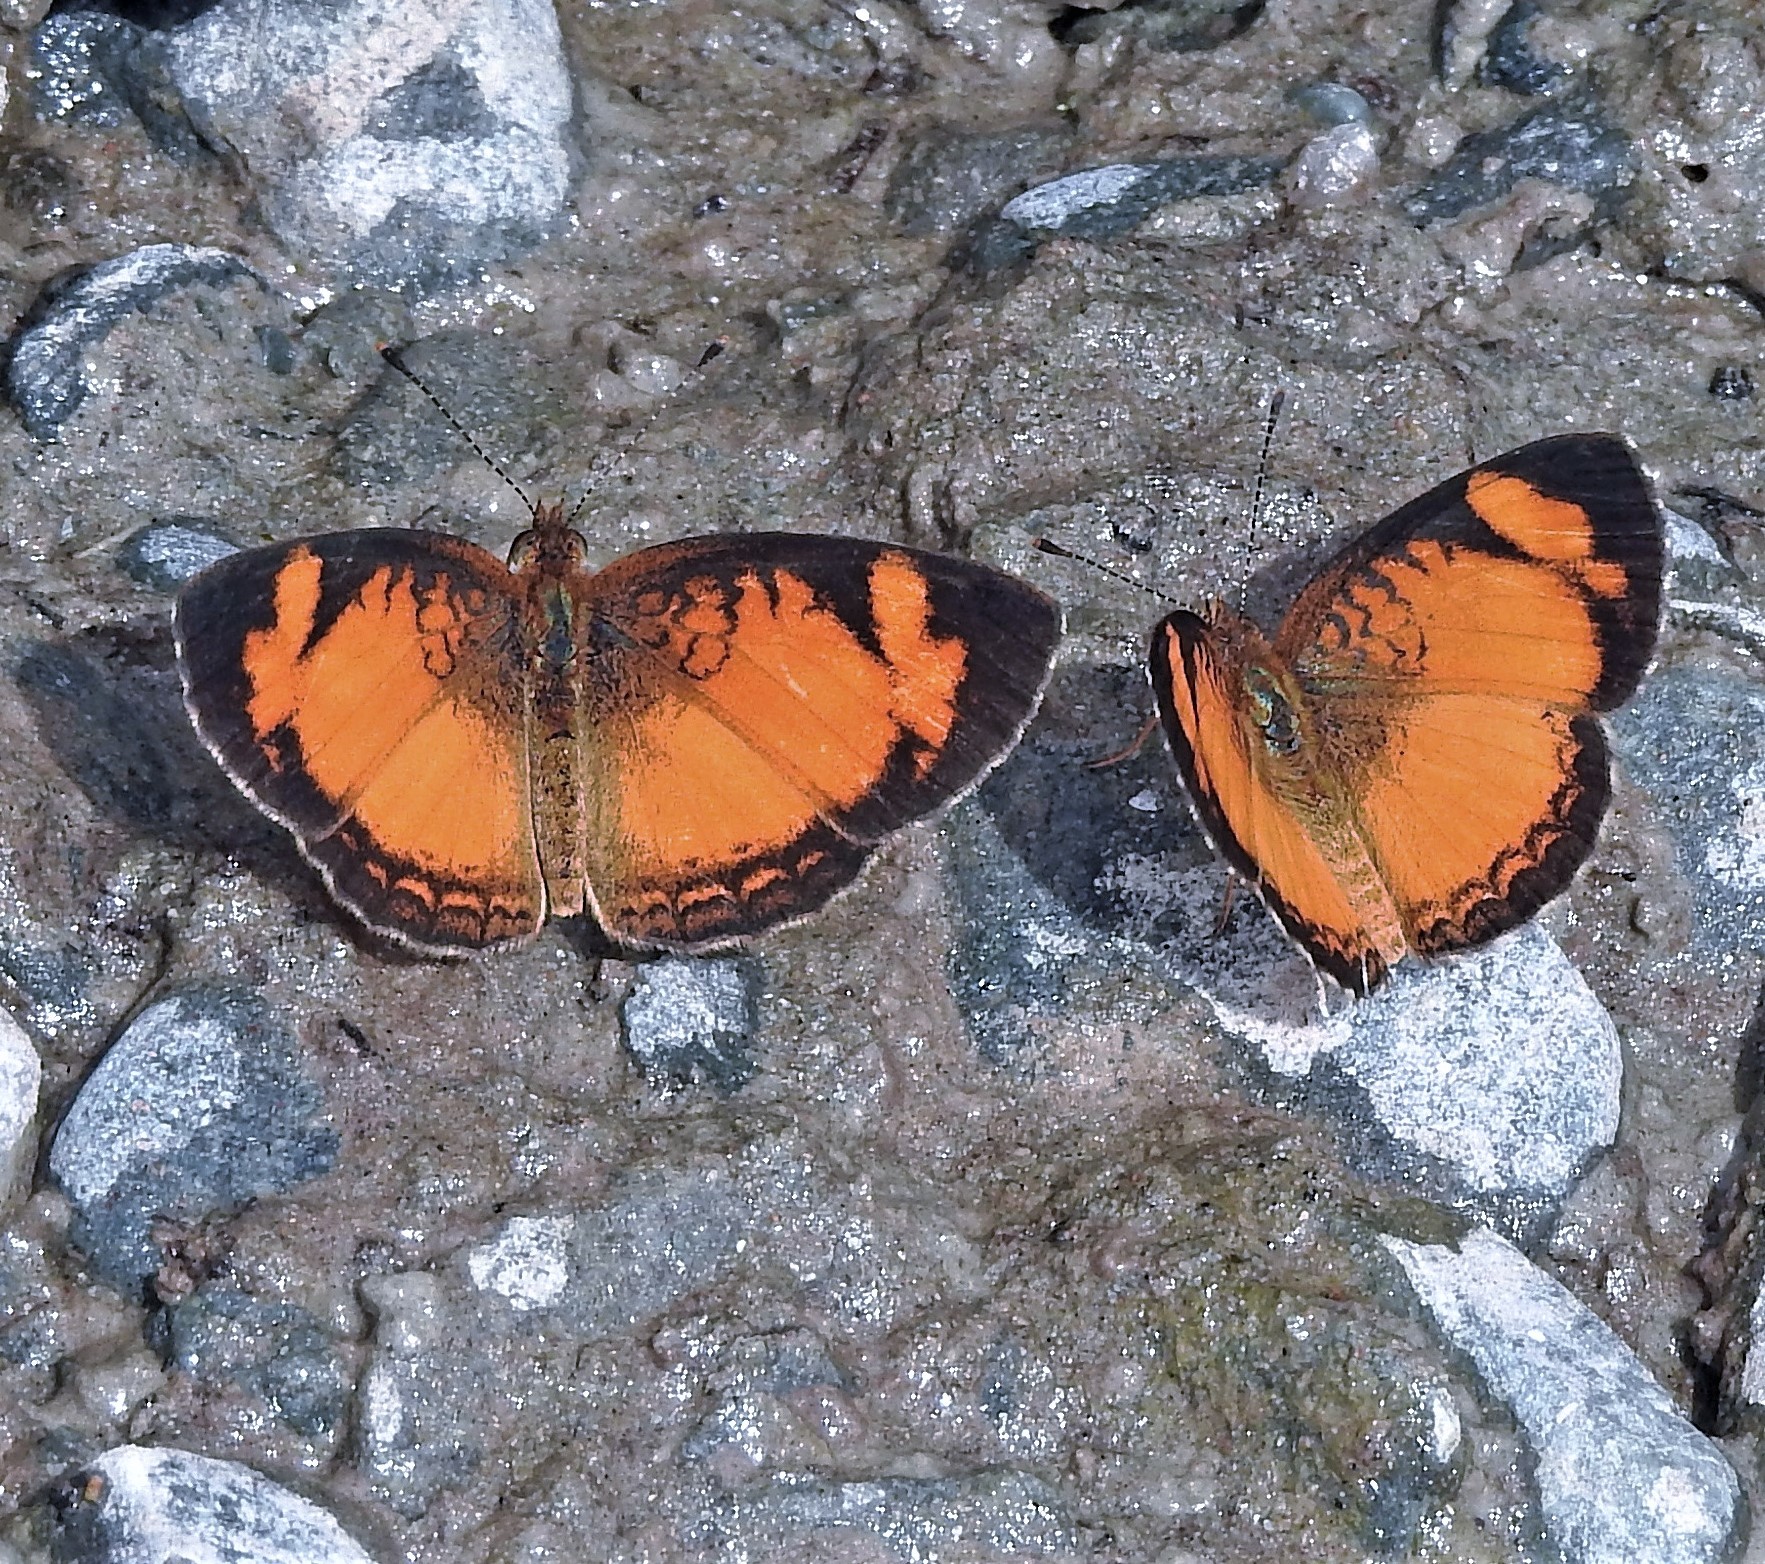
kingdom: Animalia
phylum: Arthropoda
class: Insecta
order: Lepidoptera
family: Nymphalidae
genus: Ortilia
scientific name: Ortilia gentina
